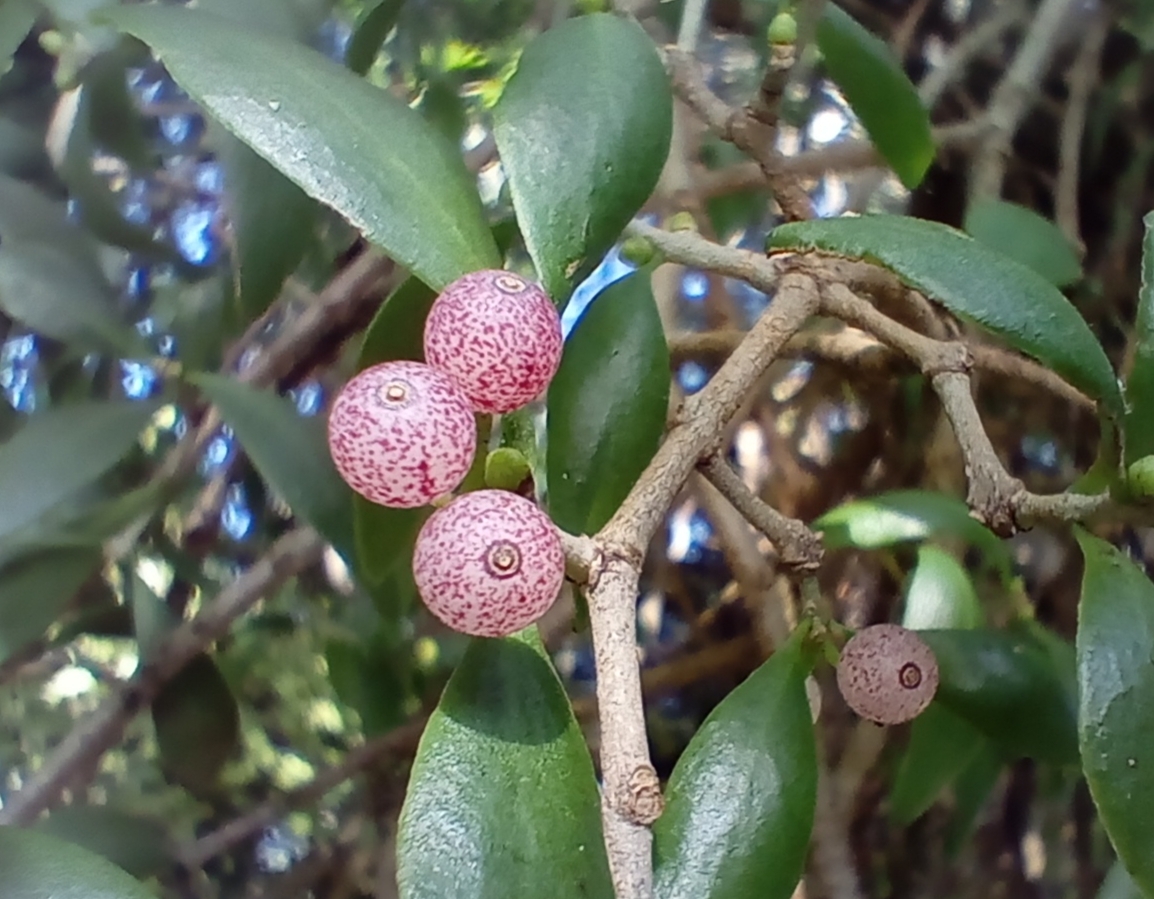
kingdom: Plantae
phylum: Tracheophyta
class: Magnoliopsida
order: Santalales
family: Loranthaceae
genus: Tupeia
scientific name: Tupeia antarctica
